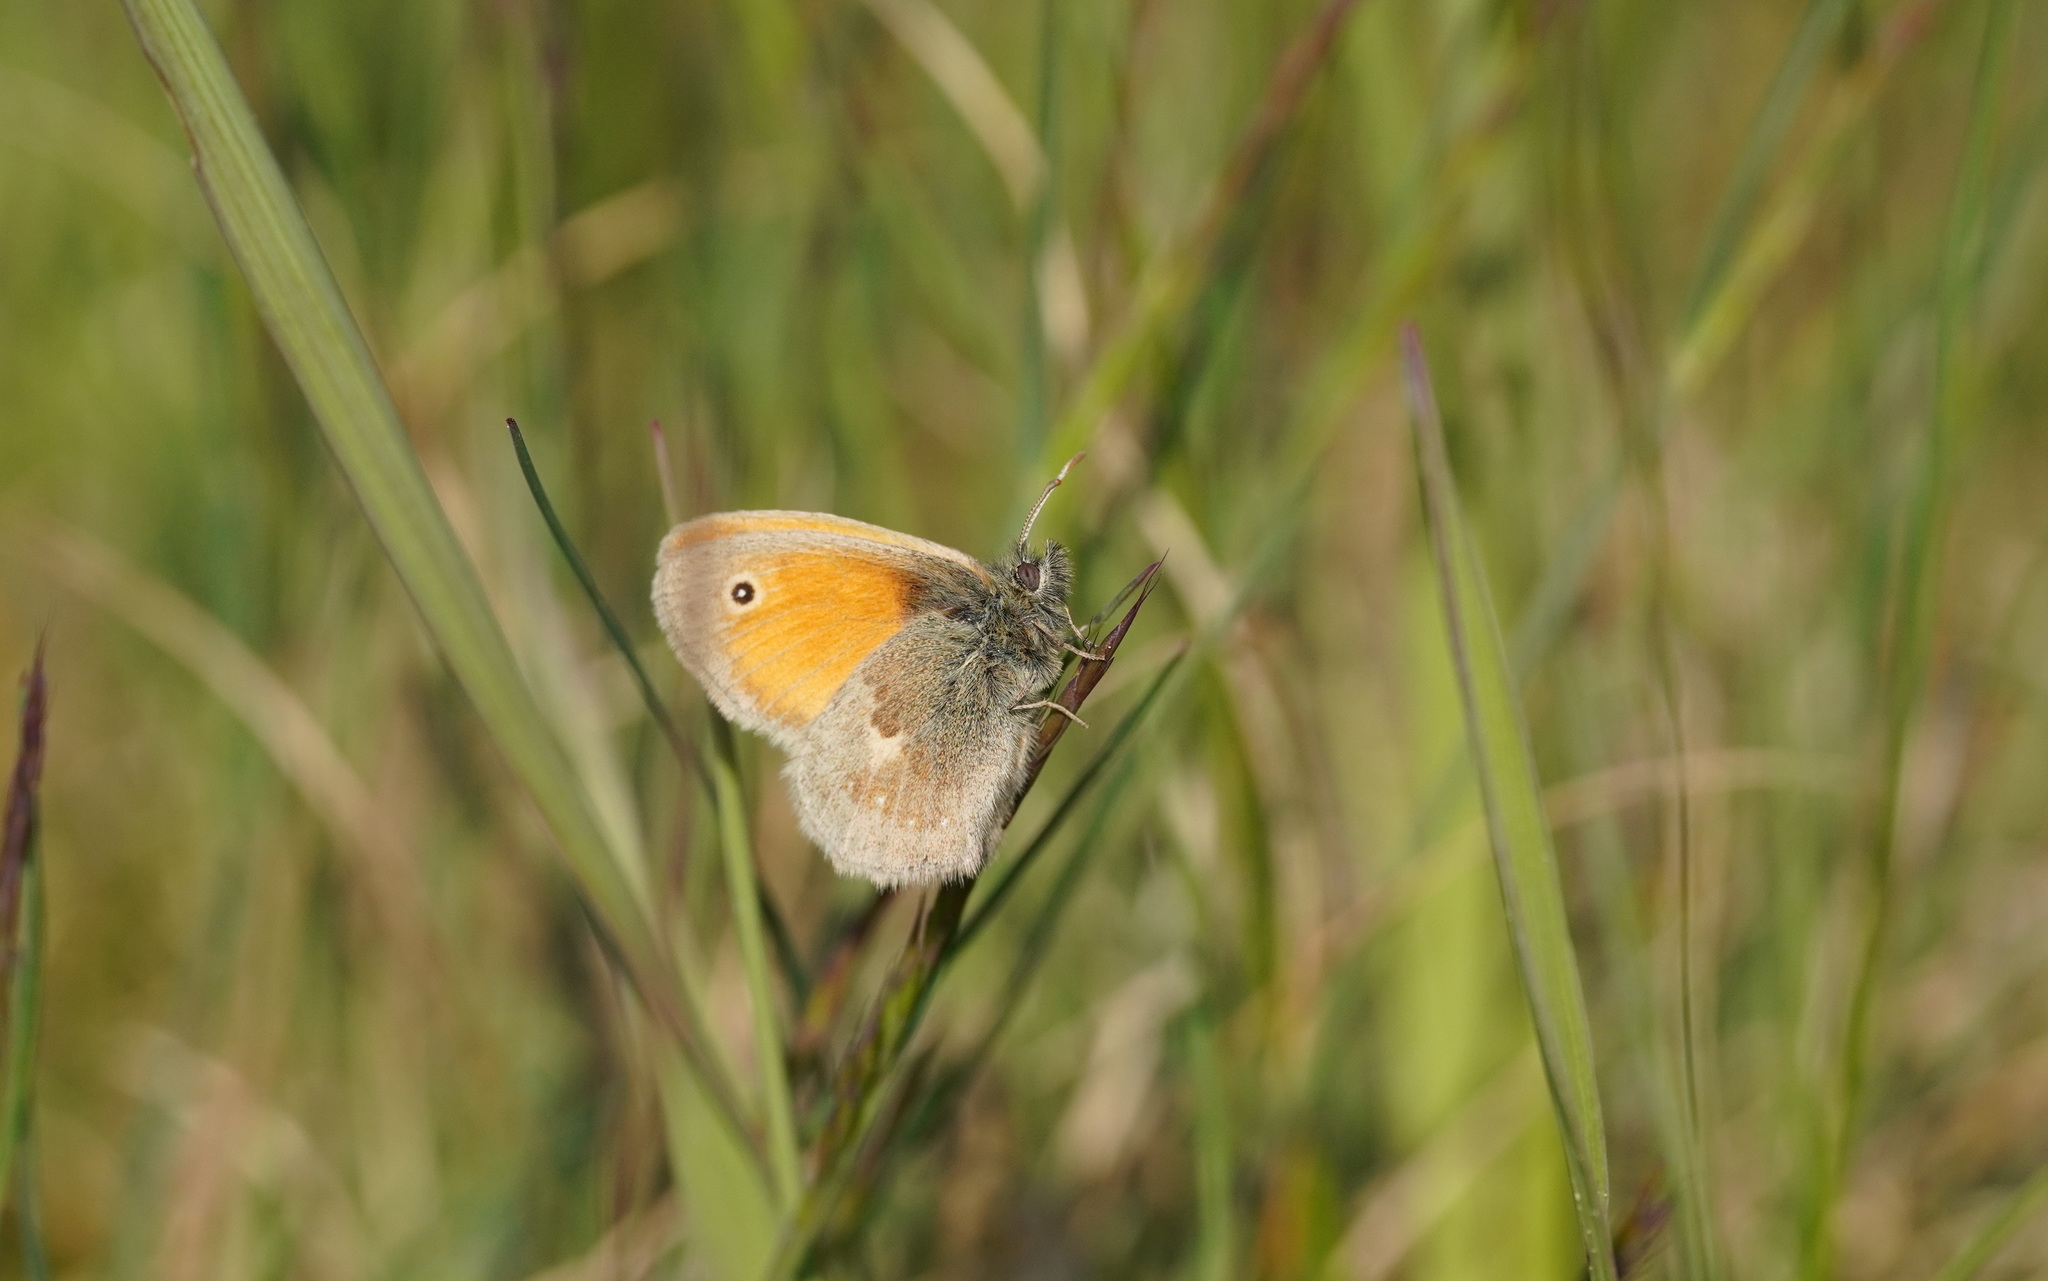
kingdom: Animalia
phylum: Arthropoda
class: Insecta
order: Lepidoptera
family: Nymphalidae
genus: Coenonympha
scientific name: Coenonympha pamphilus
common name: Small heath
